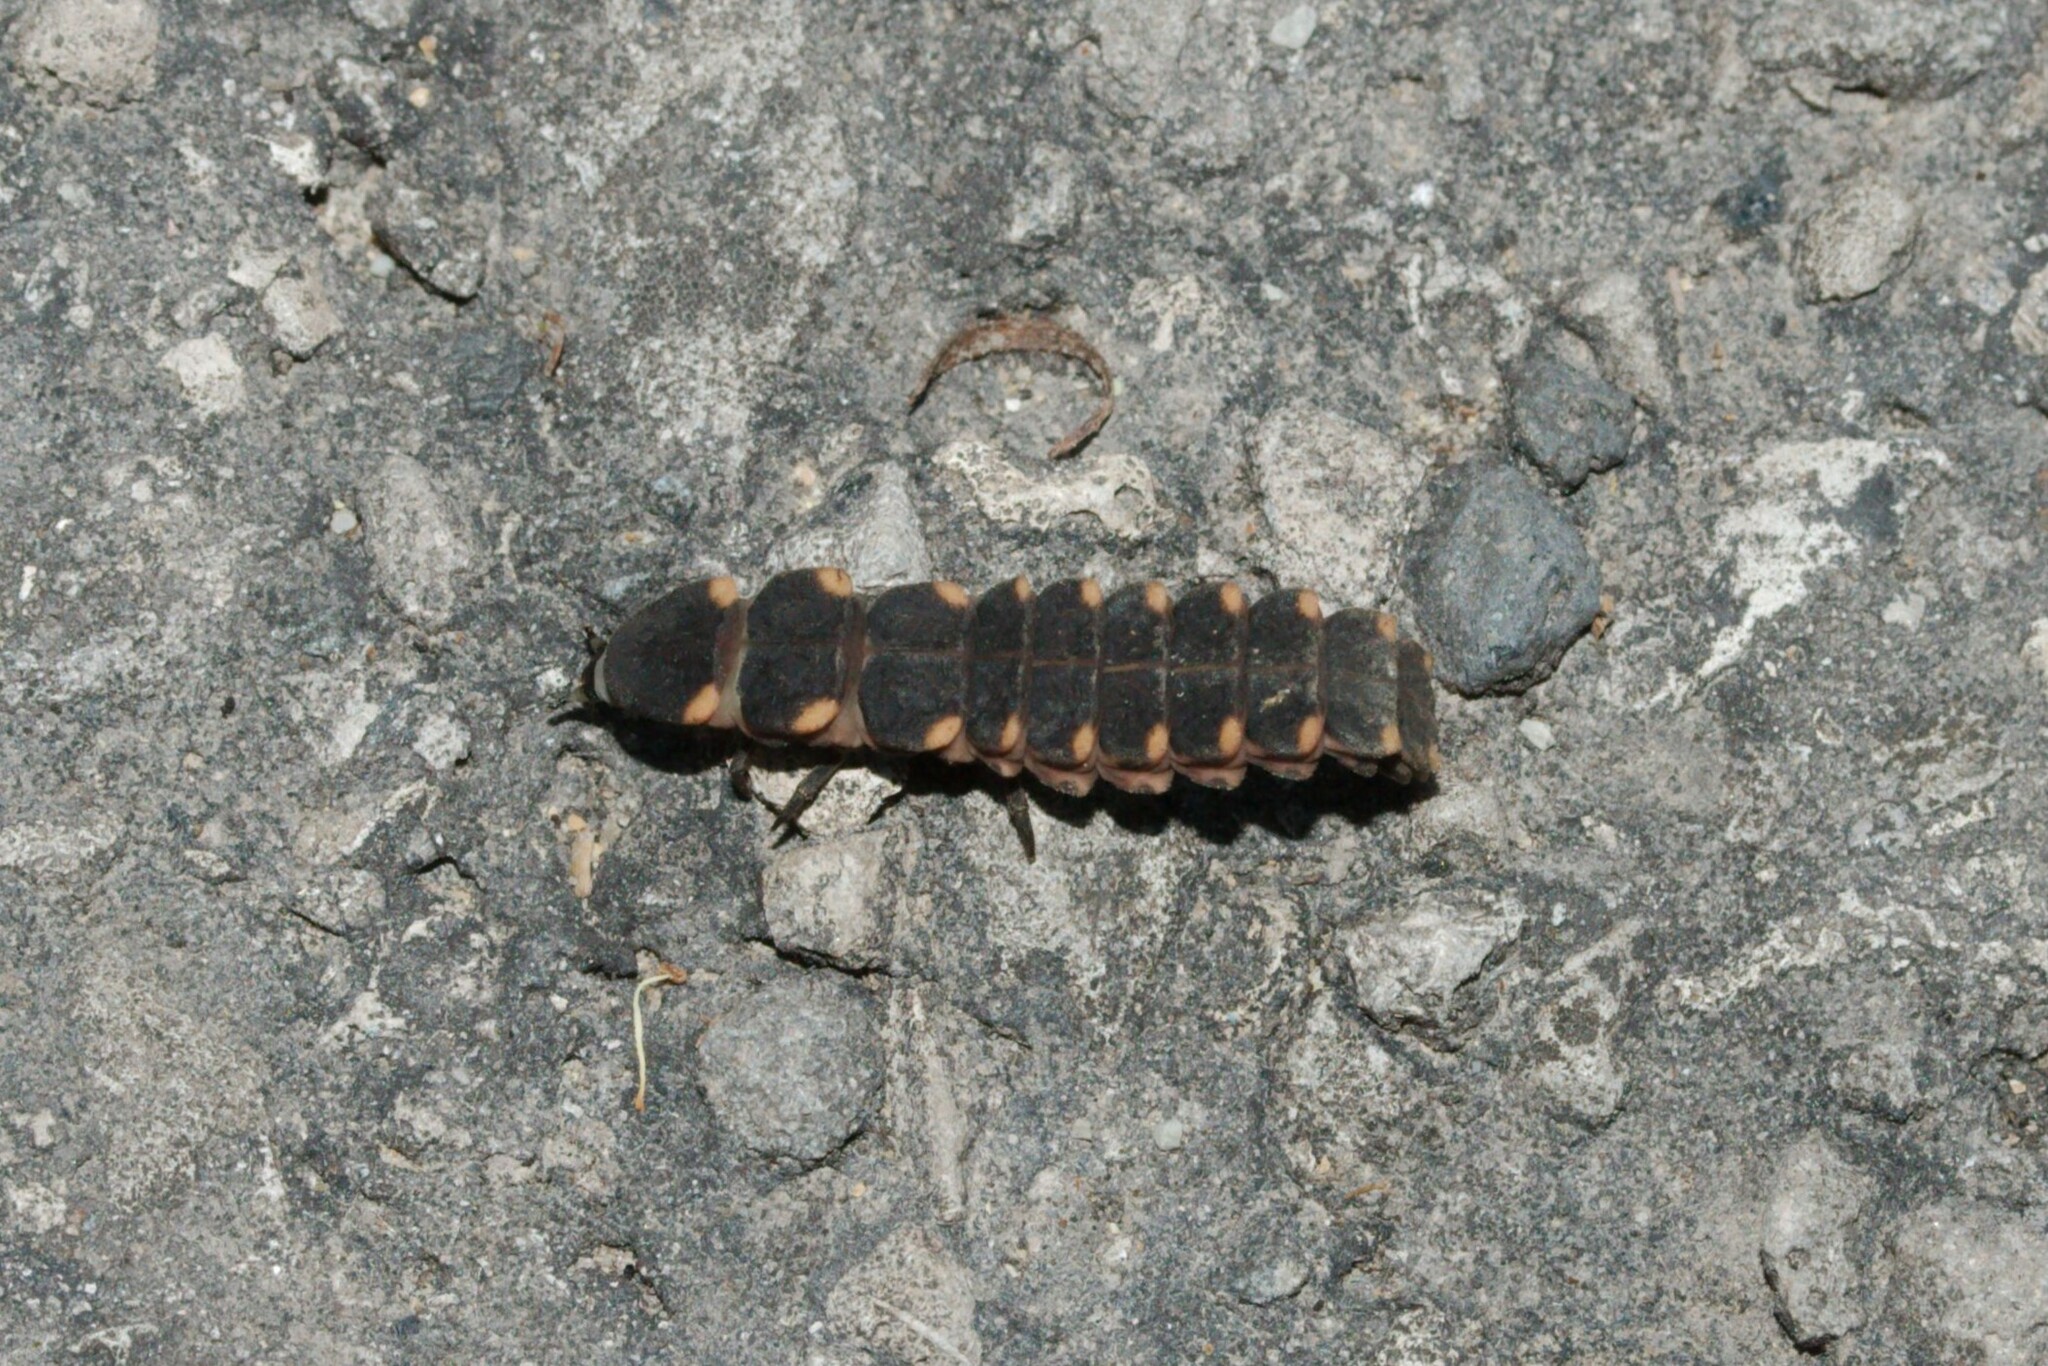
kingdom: Animalia
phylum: Arthropoda
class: Insecta
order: Coleoptera
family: Lampyridae
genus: Lampyris
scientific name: Lampyris noctiluca
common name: Glow-worm
